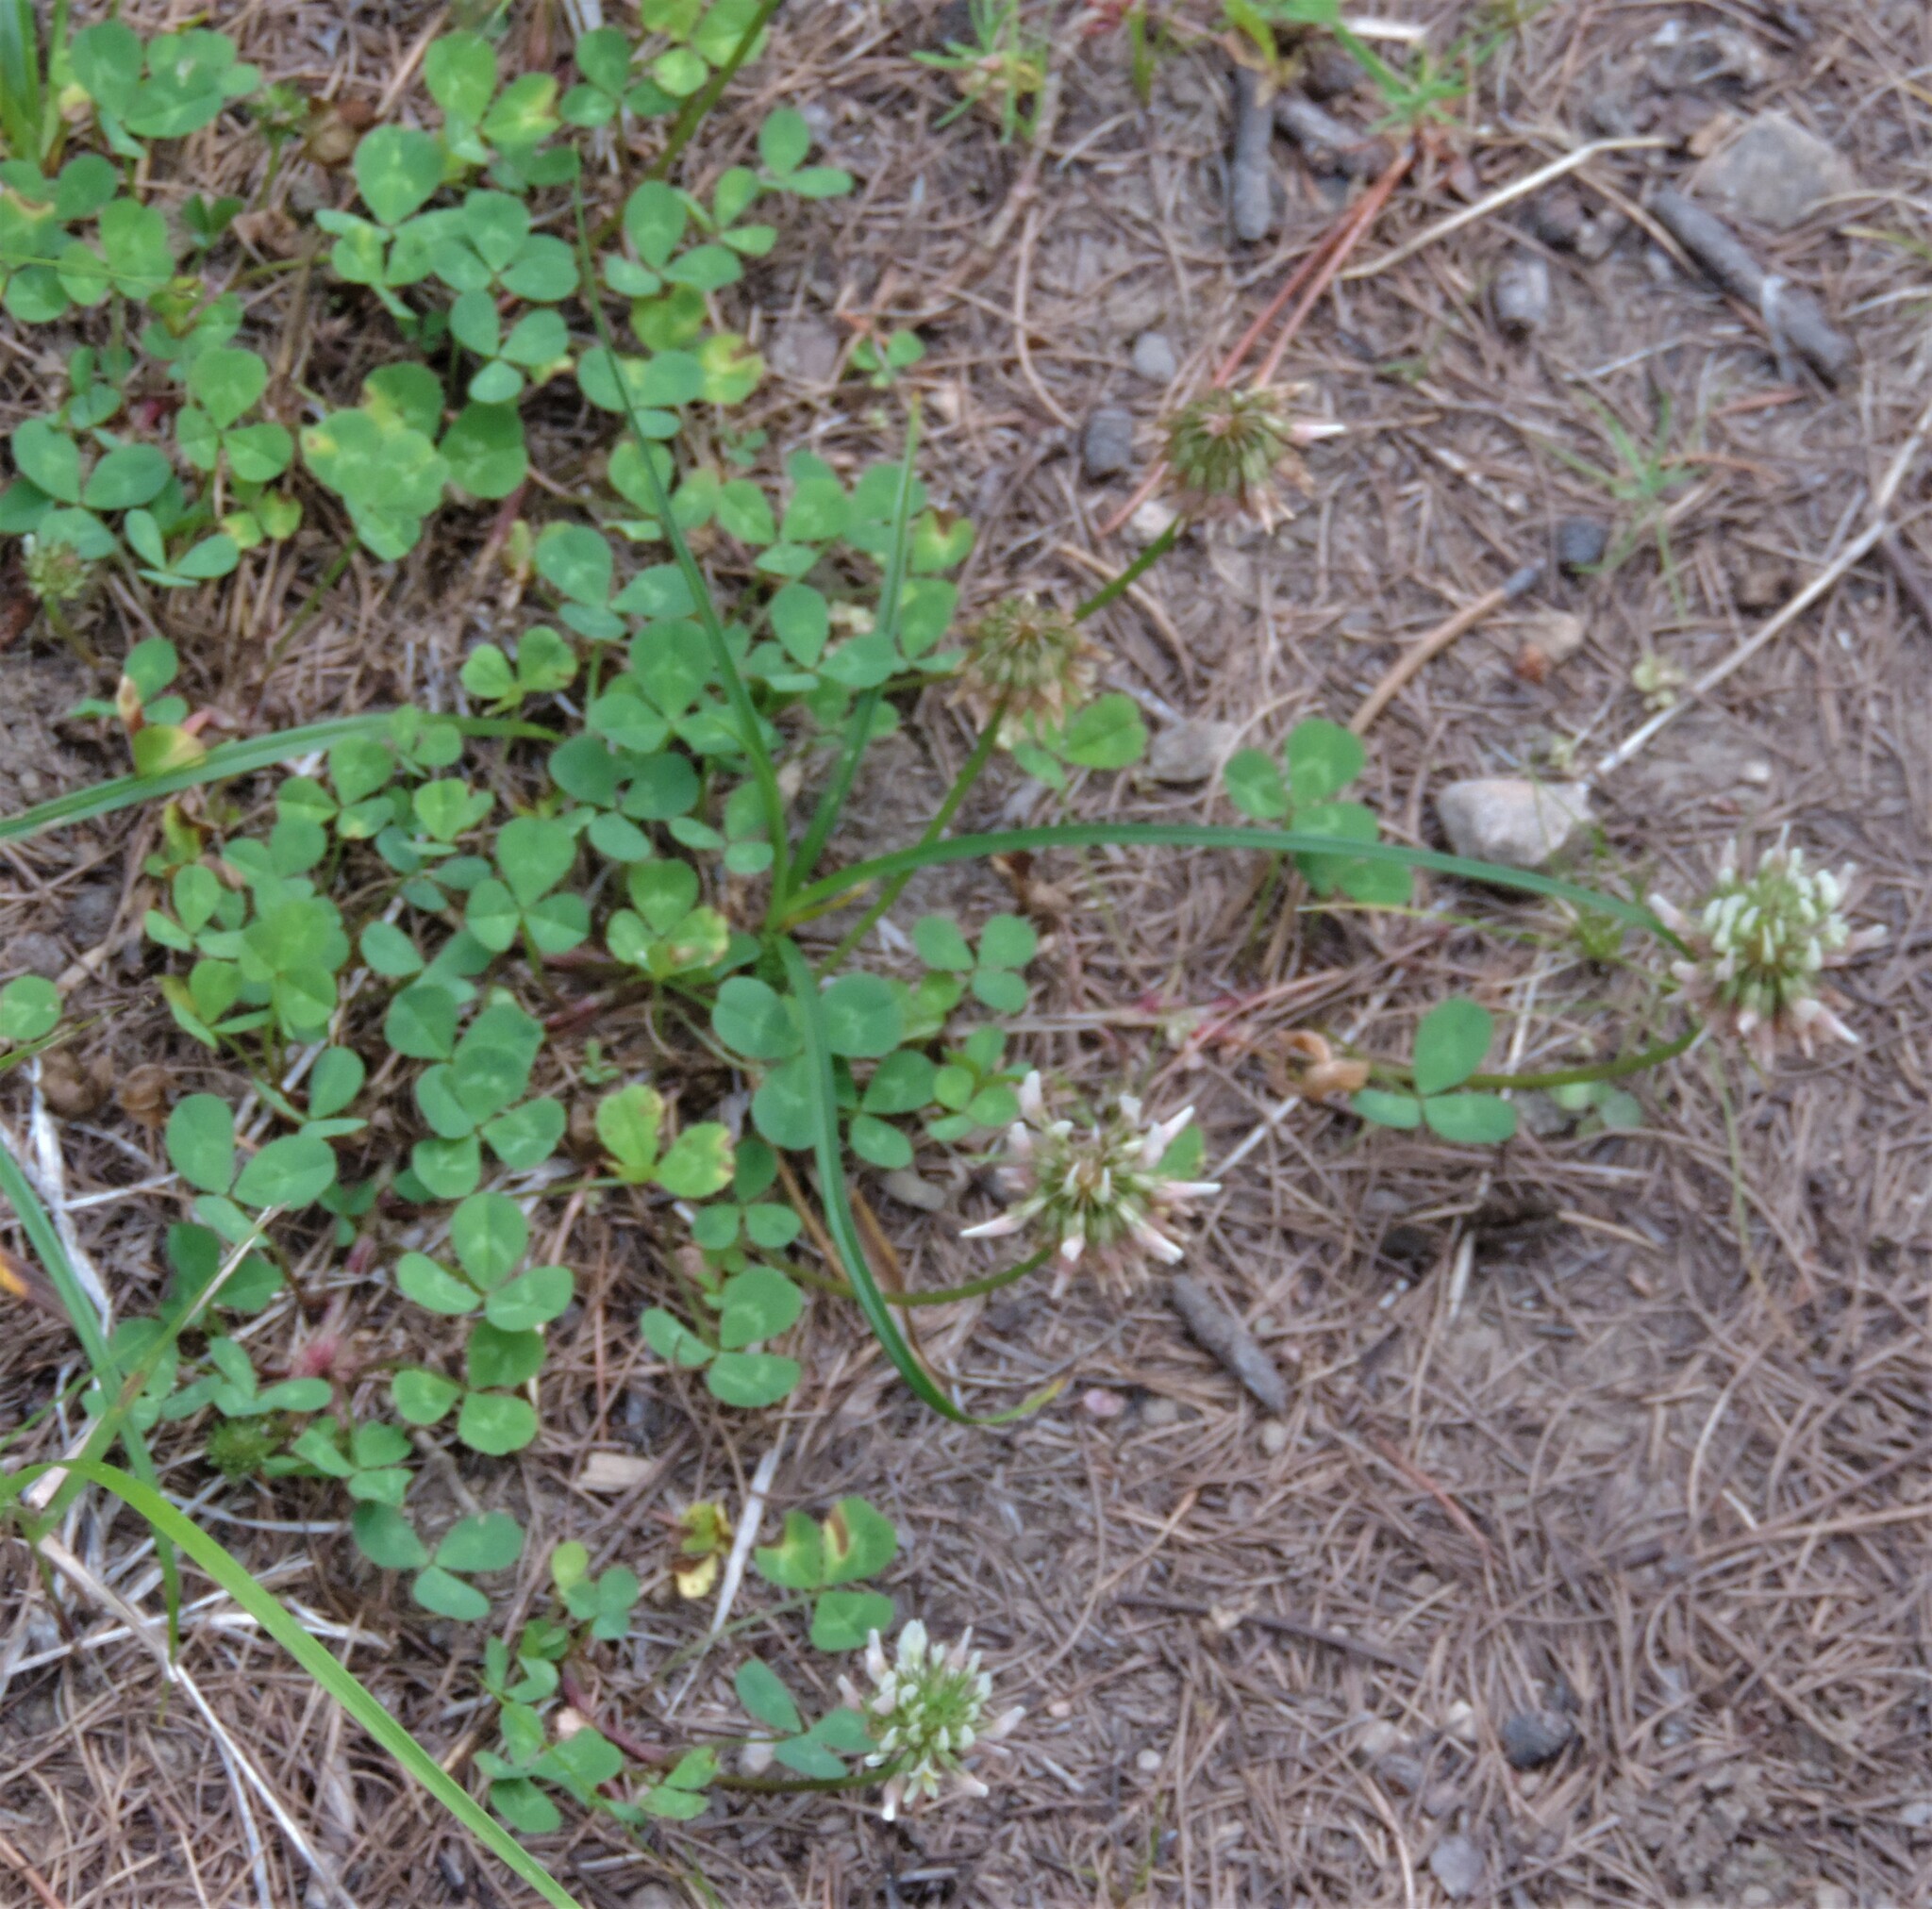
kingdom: Plantae
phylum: Tracheophyta
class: Magnoliopsida
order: Fabales
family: Fabaceae
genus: Trifolium
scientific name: Trifolium repens
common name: White clover
